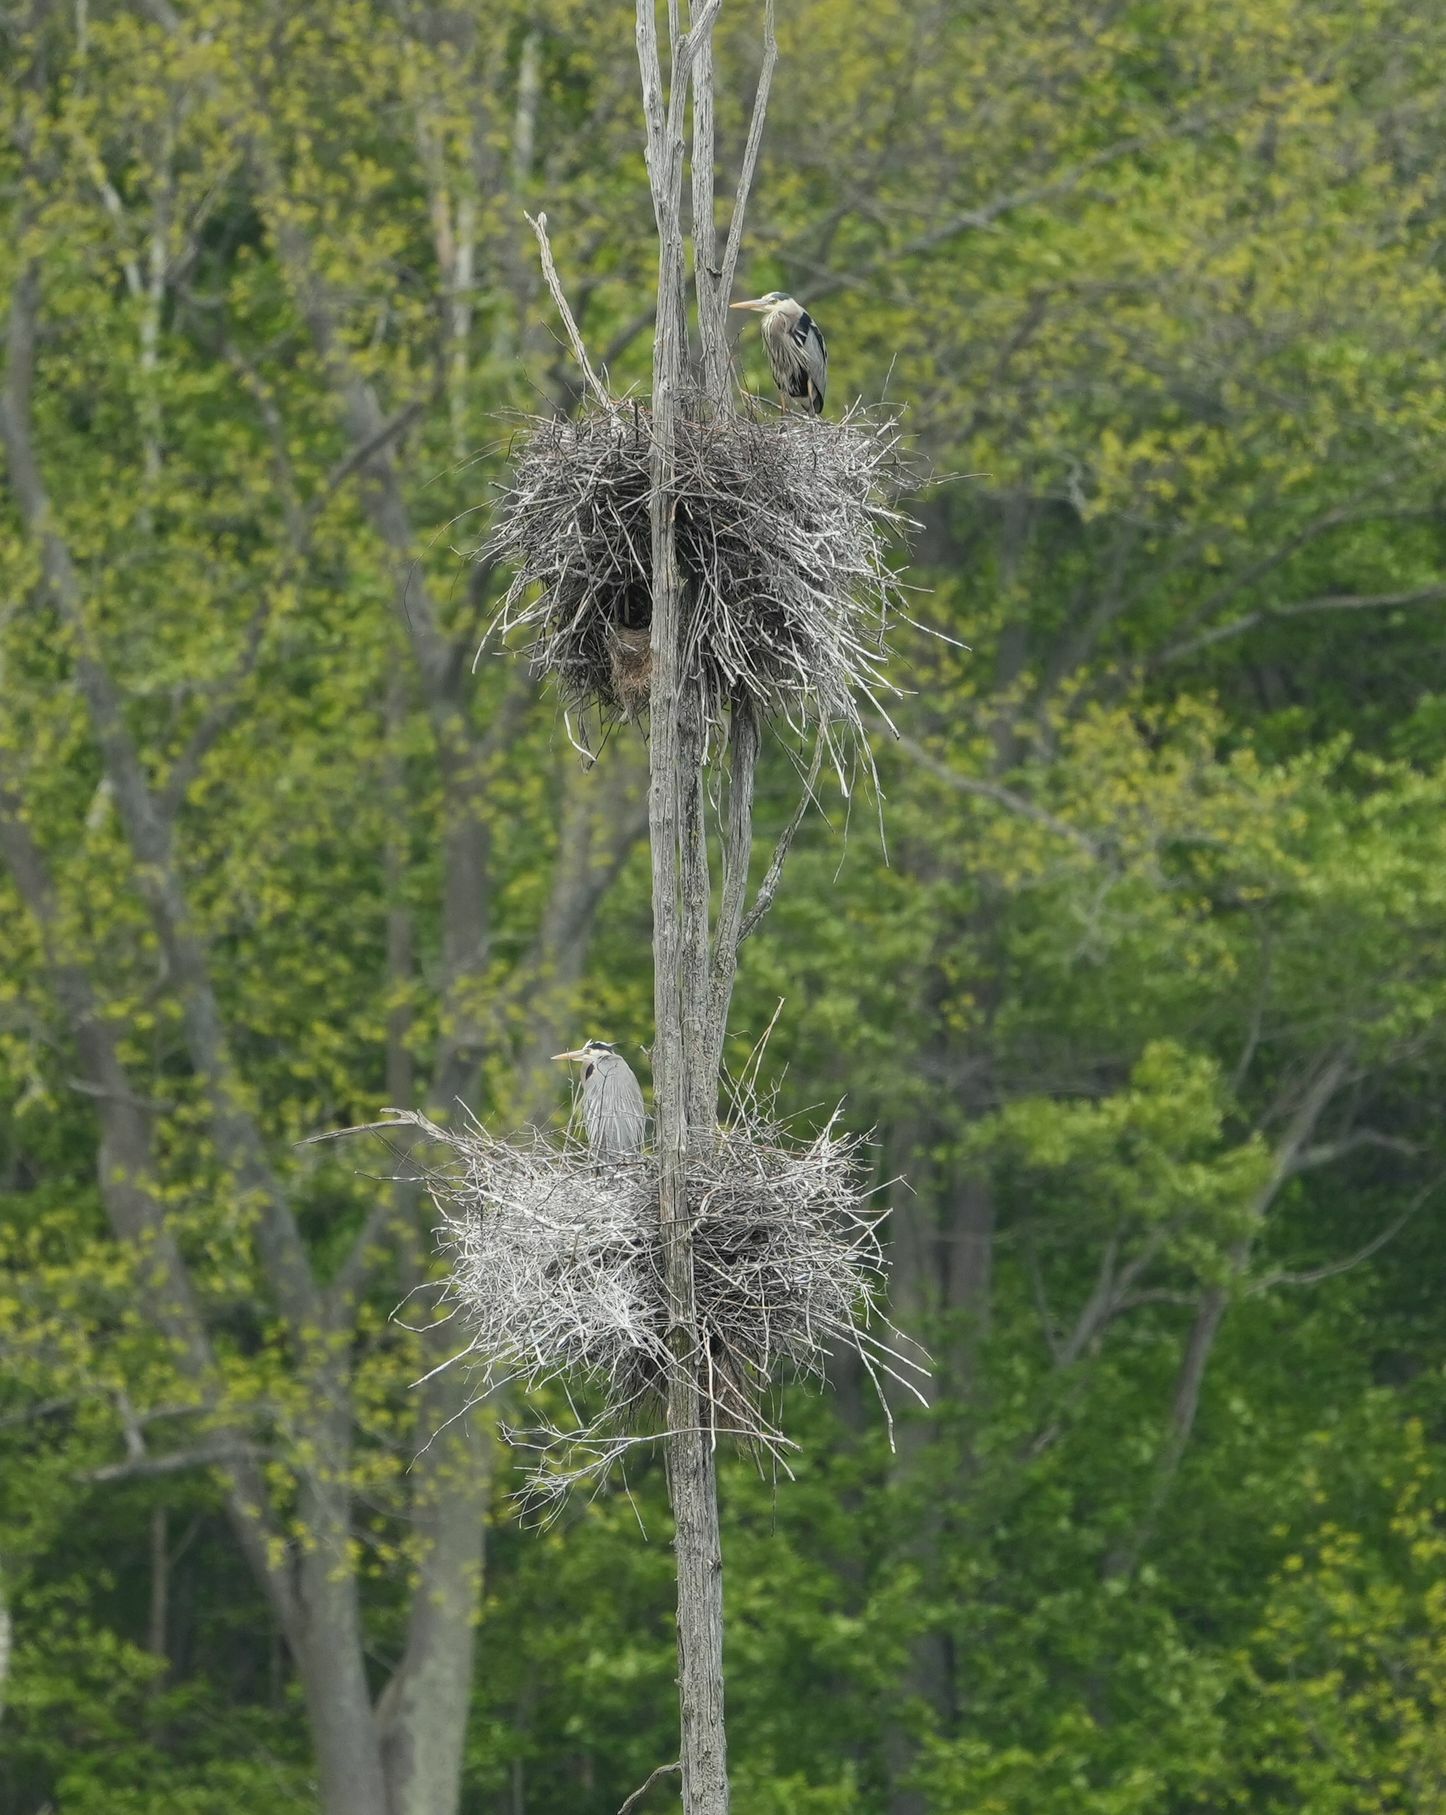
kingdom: Animalia
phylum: Chordata
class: Aves
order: Pelecaniformes
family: Ardeidae
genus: Ardea
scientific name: Ardea herodias
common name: Great blue heron
